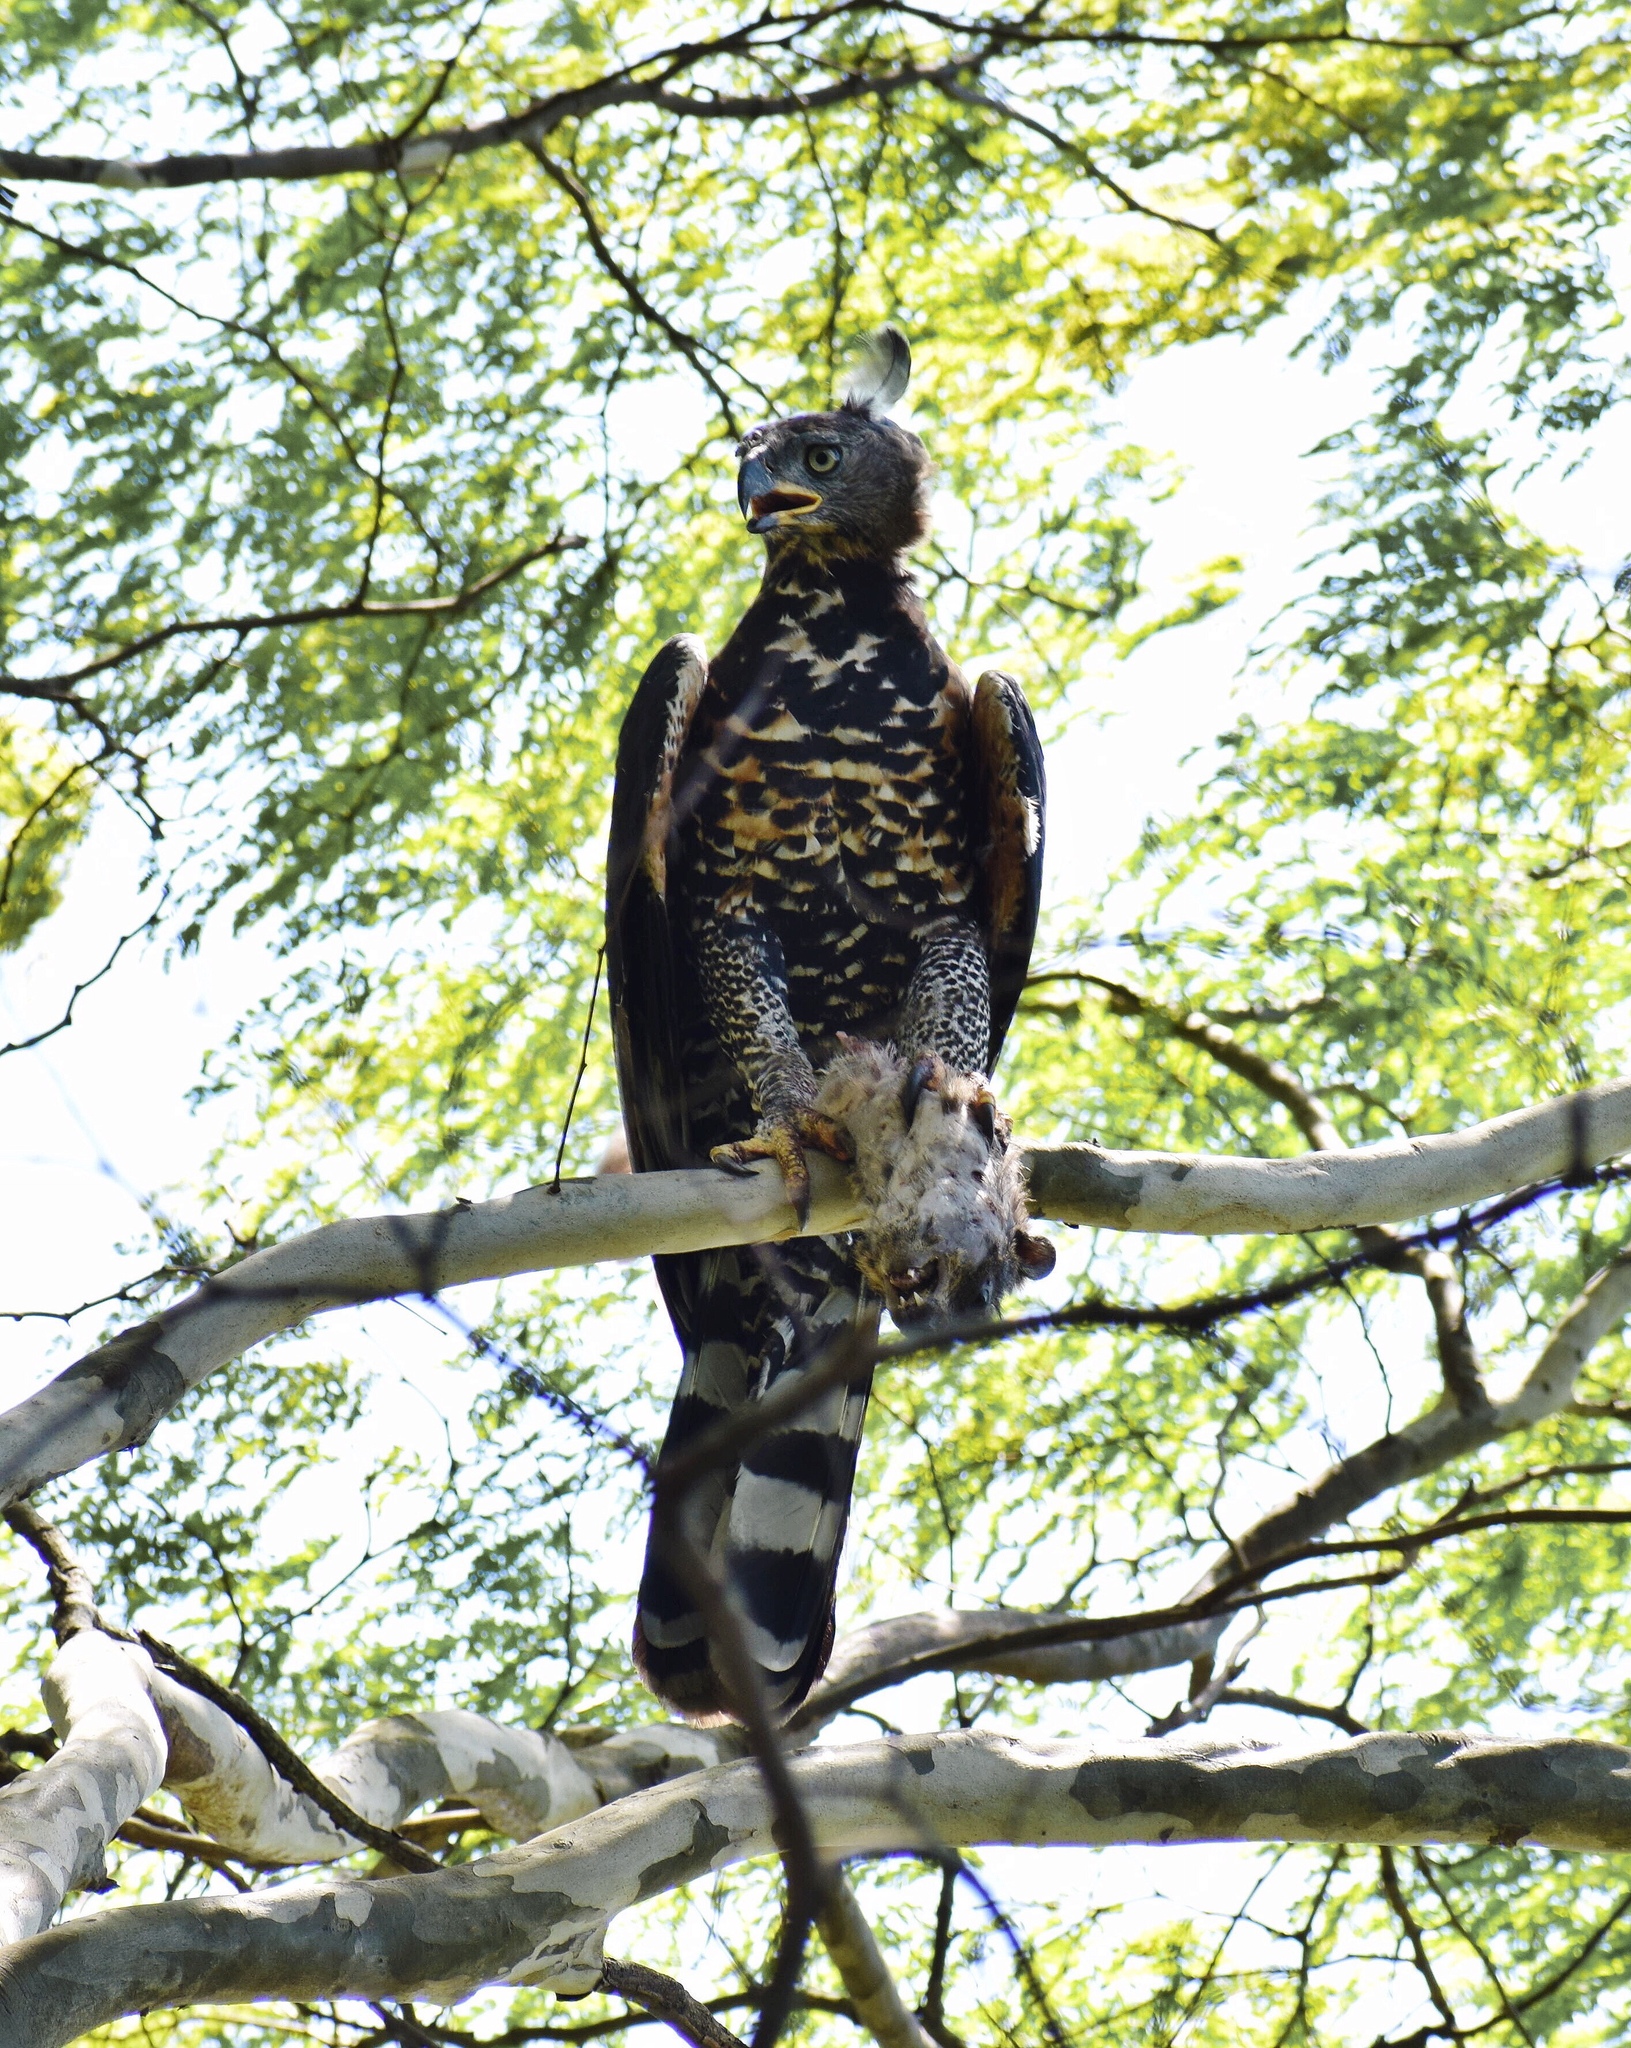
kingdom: Animalia
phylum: Chordata
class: Mammalia
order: Hyracoidea
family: Procaviidae
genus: Procavia
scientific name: Procavia capensis
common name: Rock hyrax
